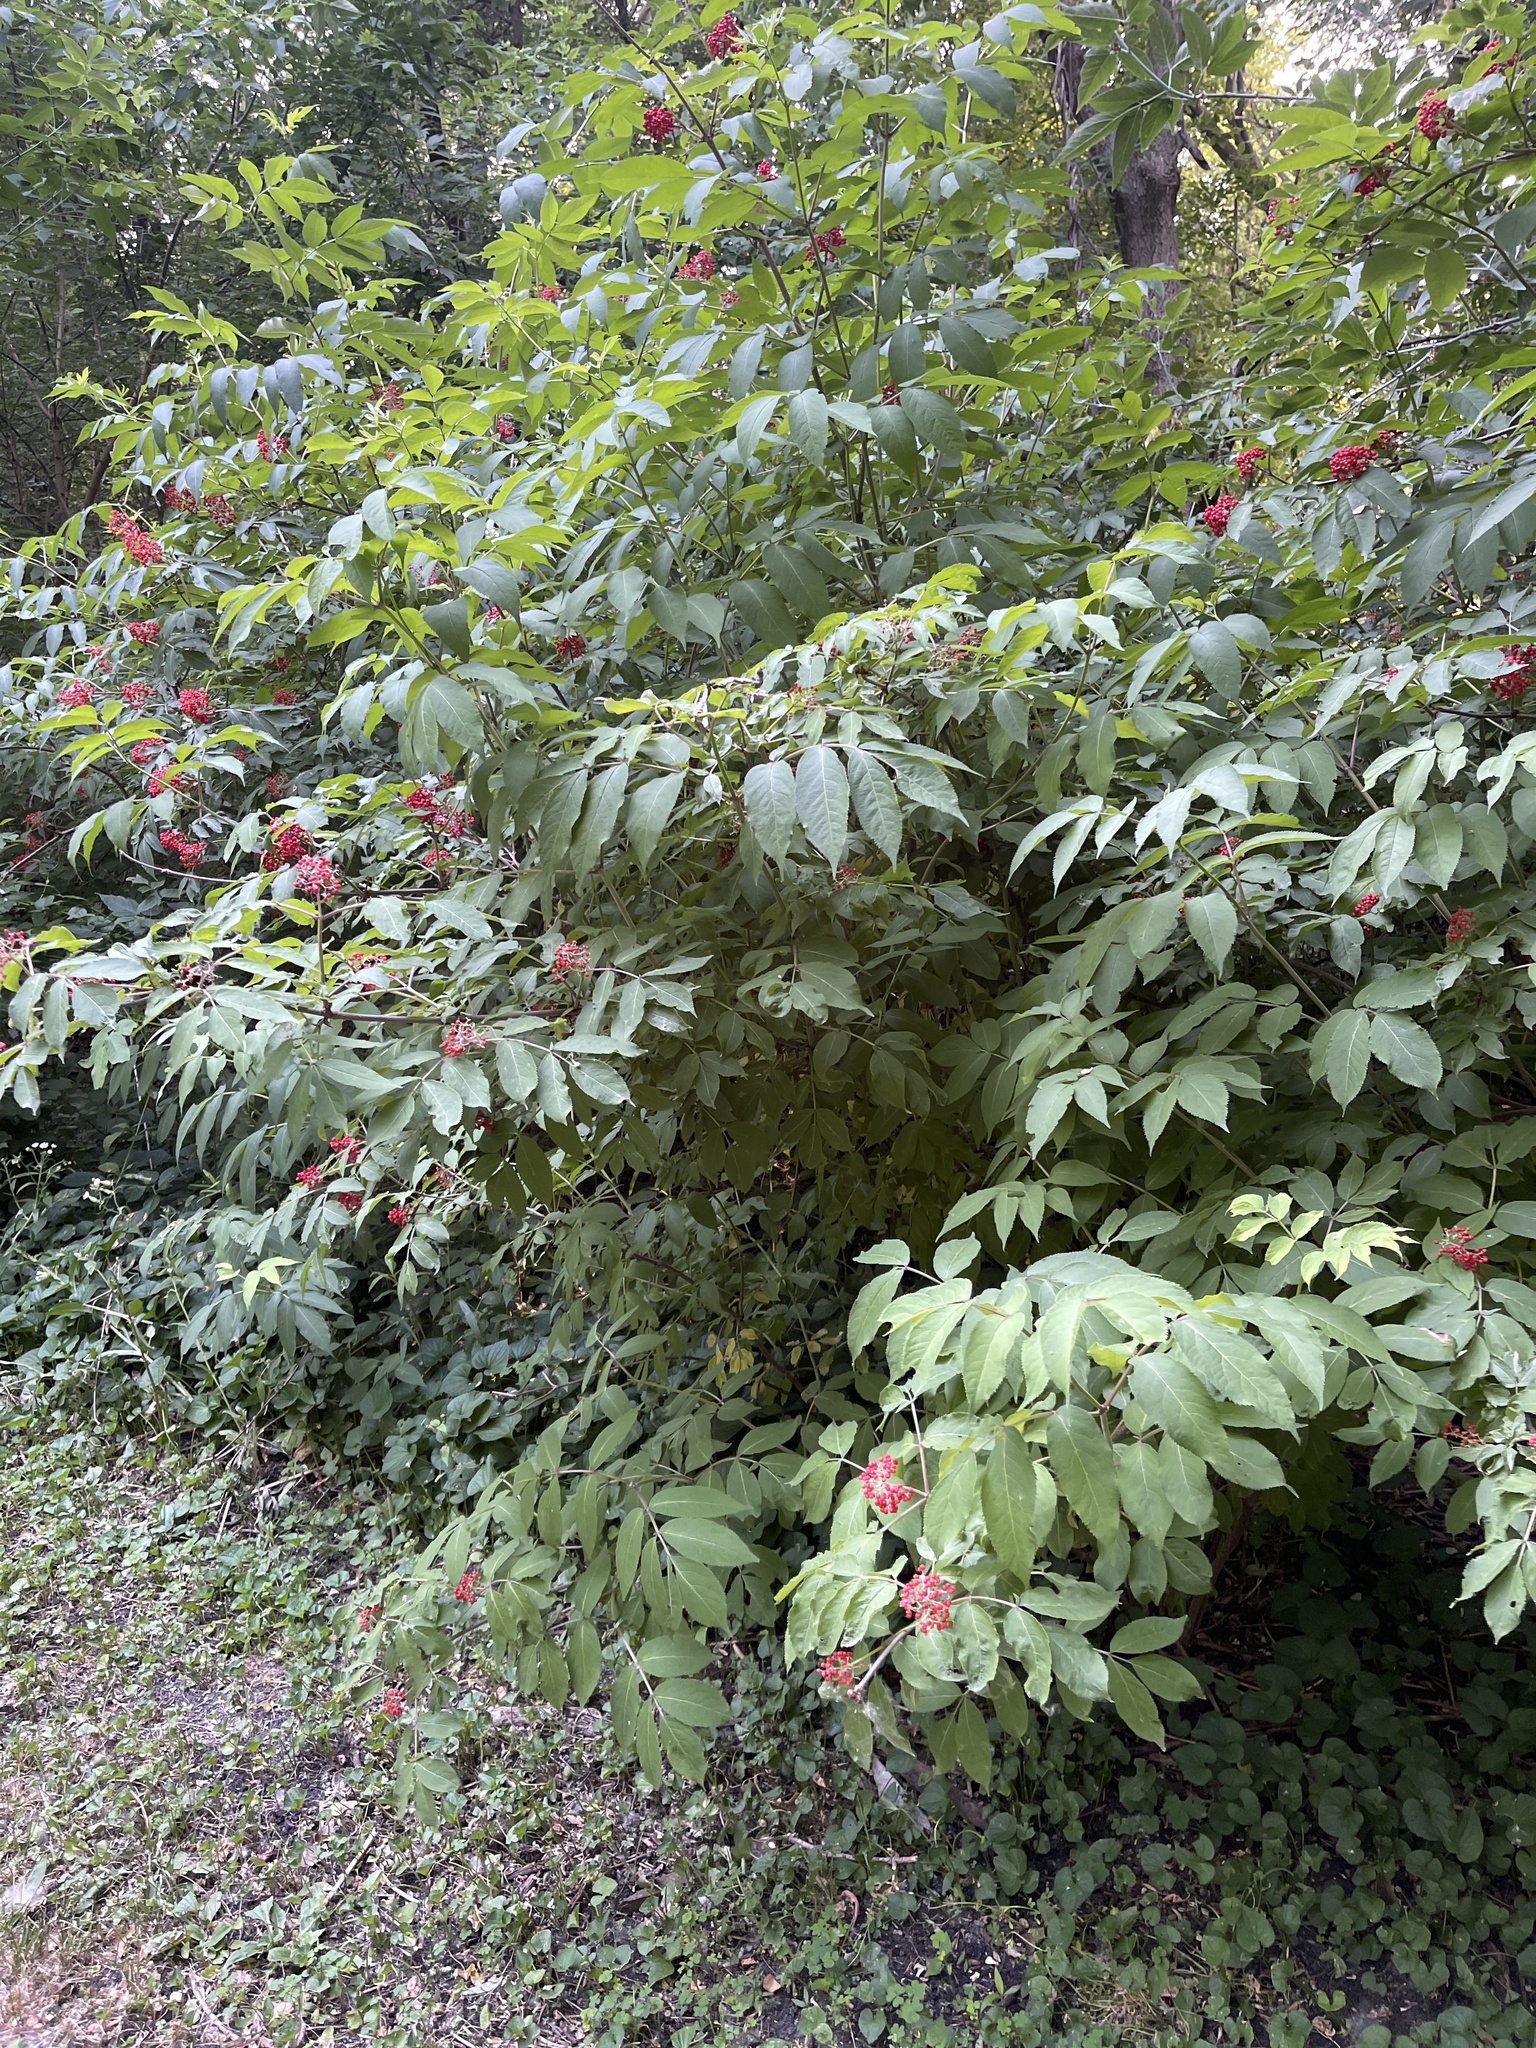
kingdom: Plantae
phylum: Tracheophyta
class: Magnoliopsida
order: Dipsacales
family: Viburnaceae
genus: Sambucus
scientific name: Sambucus racemosa
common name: Red-berried elder
